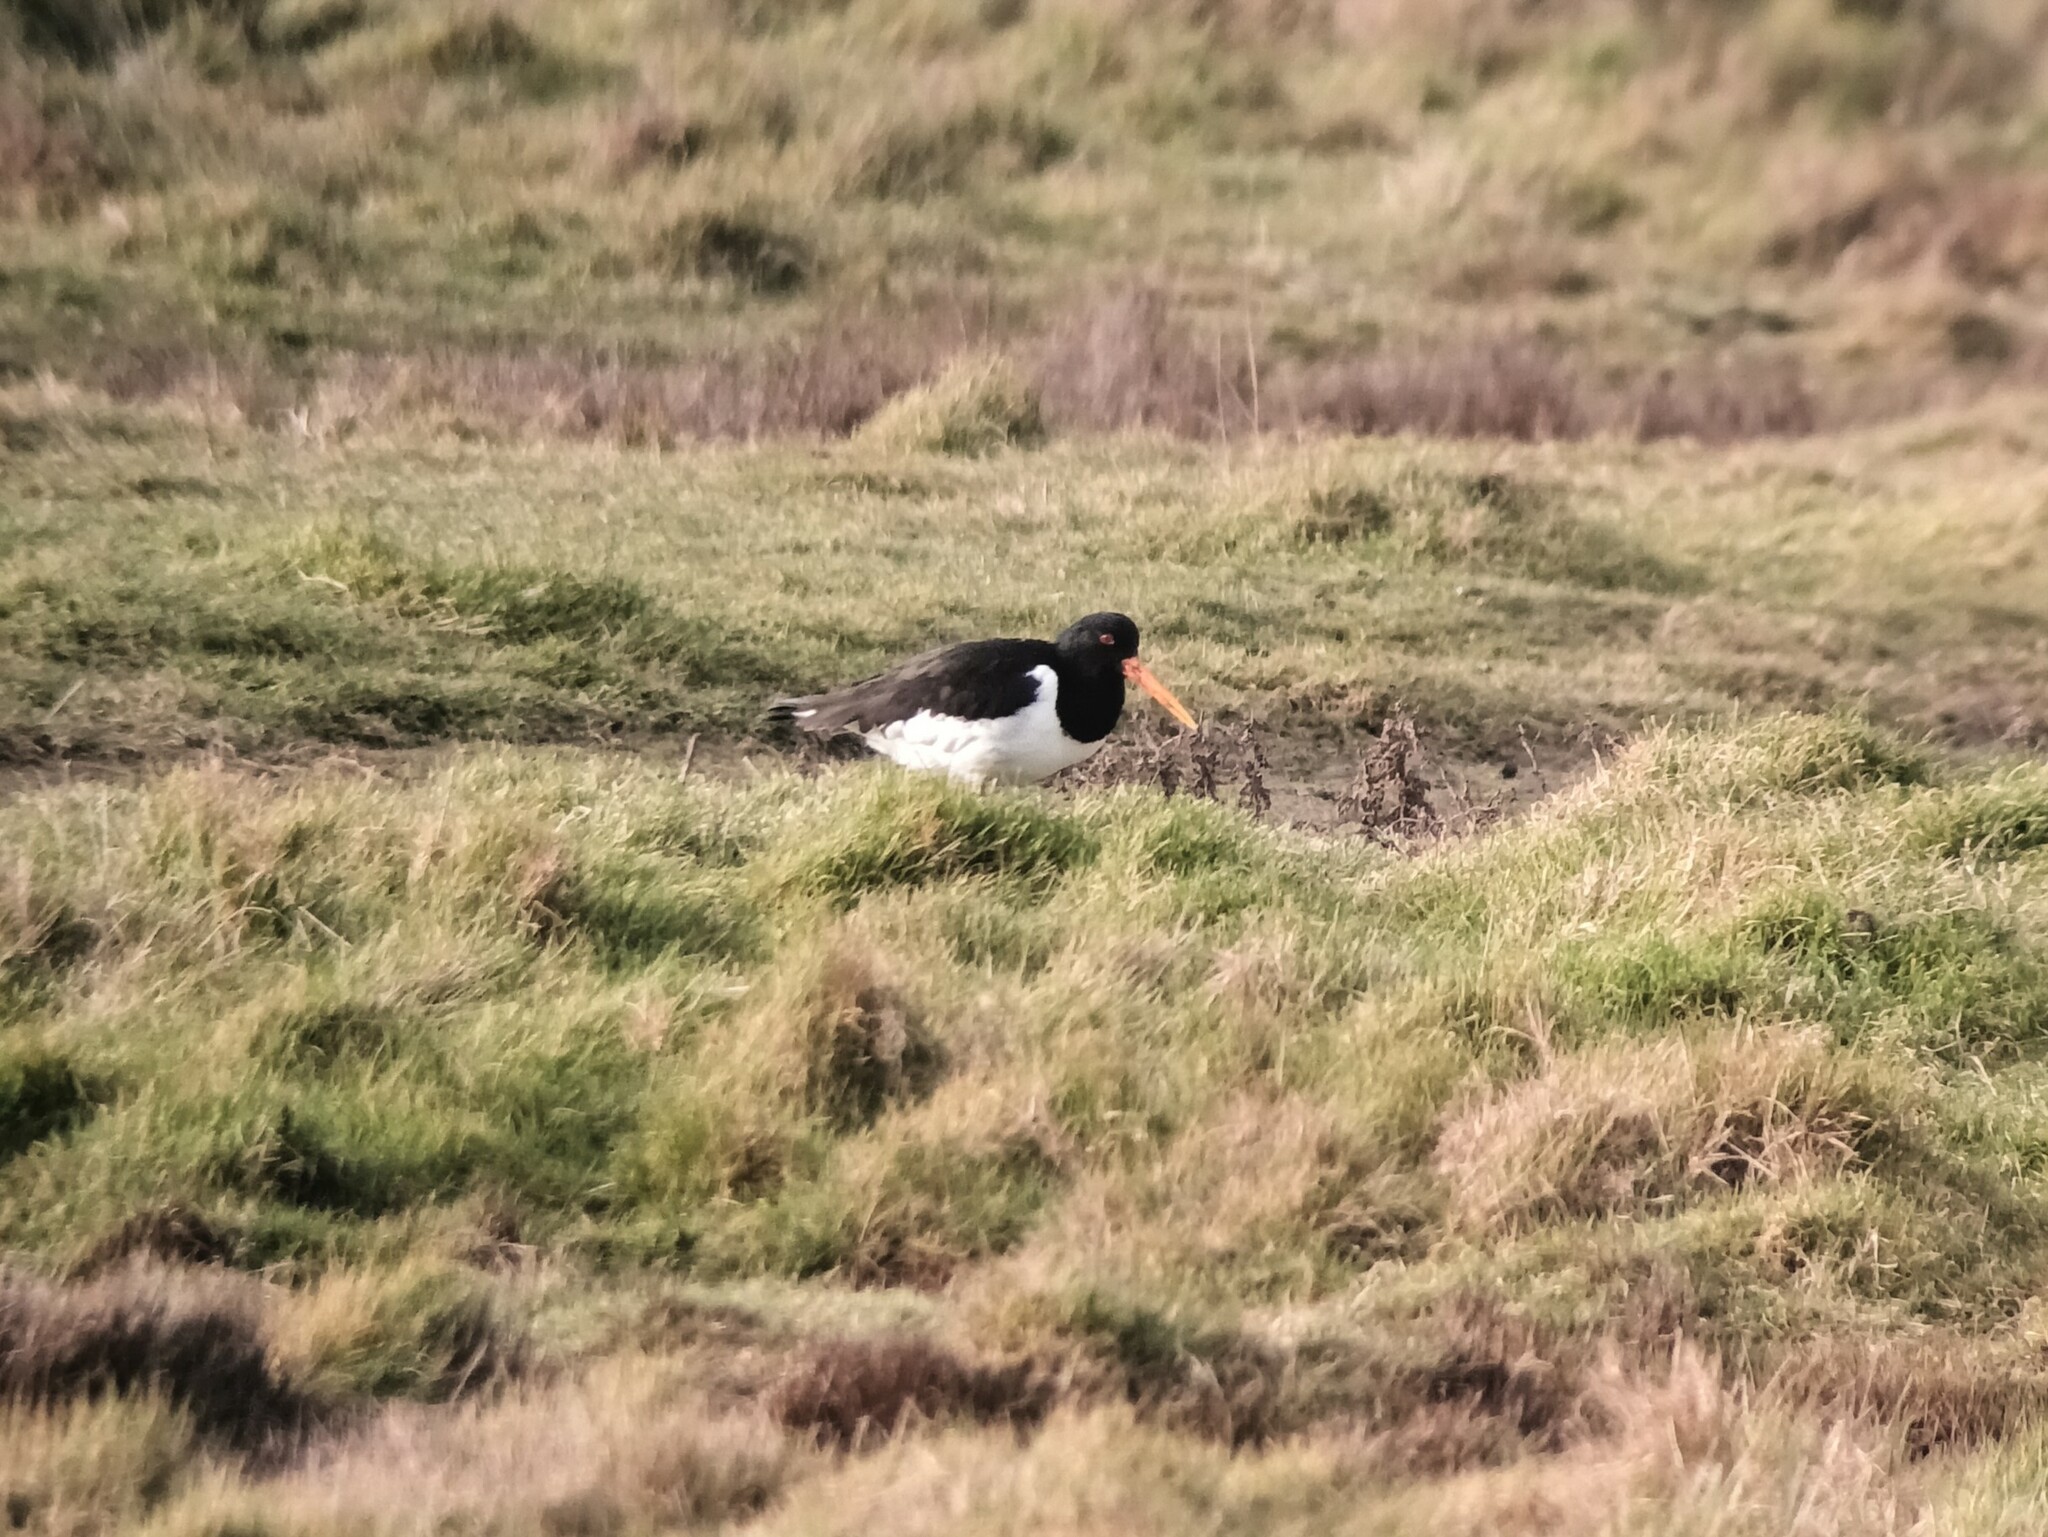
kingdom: Animalia
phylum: Chordata
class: Aves
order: Charadriiformes
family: Haematopodidae
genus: Haematopus
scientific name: Haematopus ostralegus
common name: Eurasian oystercatcher
